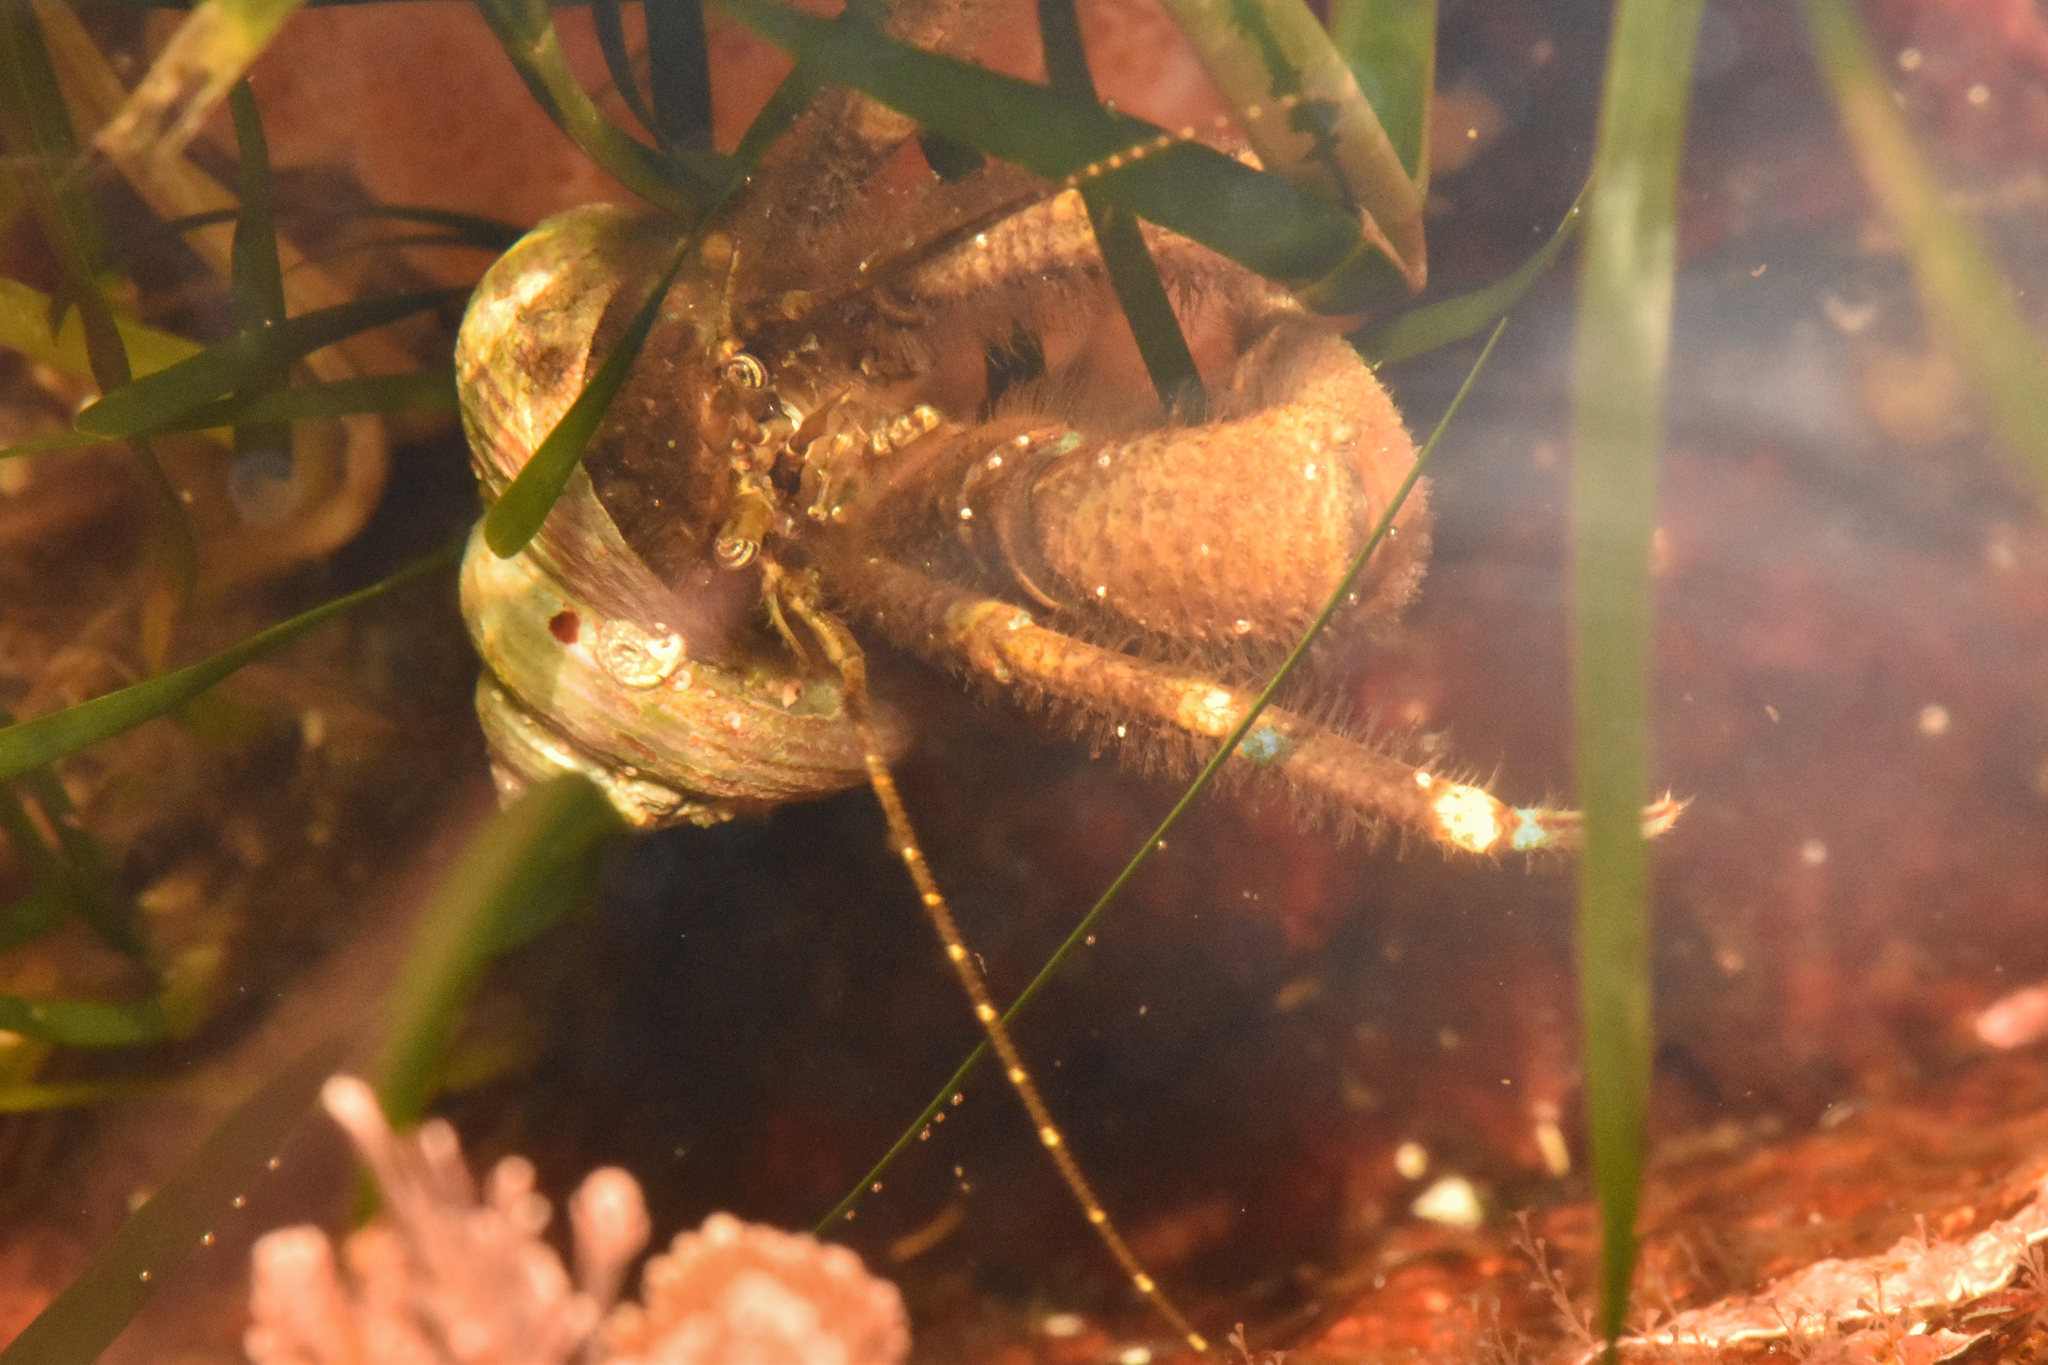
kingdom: Animalia
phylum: Arthropoda
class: Malacostraca
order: Decapoda
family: Paguridae
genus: Pagurus
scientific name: Pagurus hirsutiusculus
